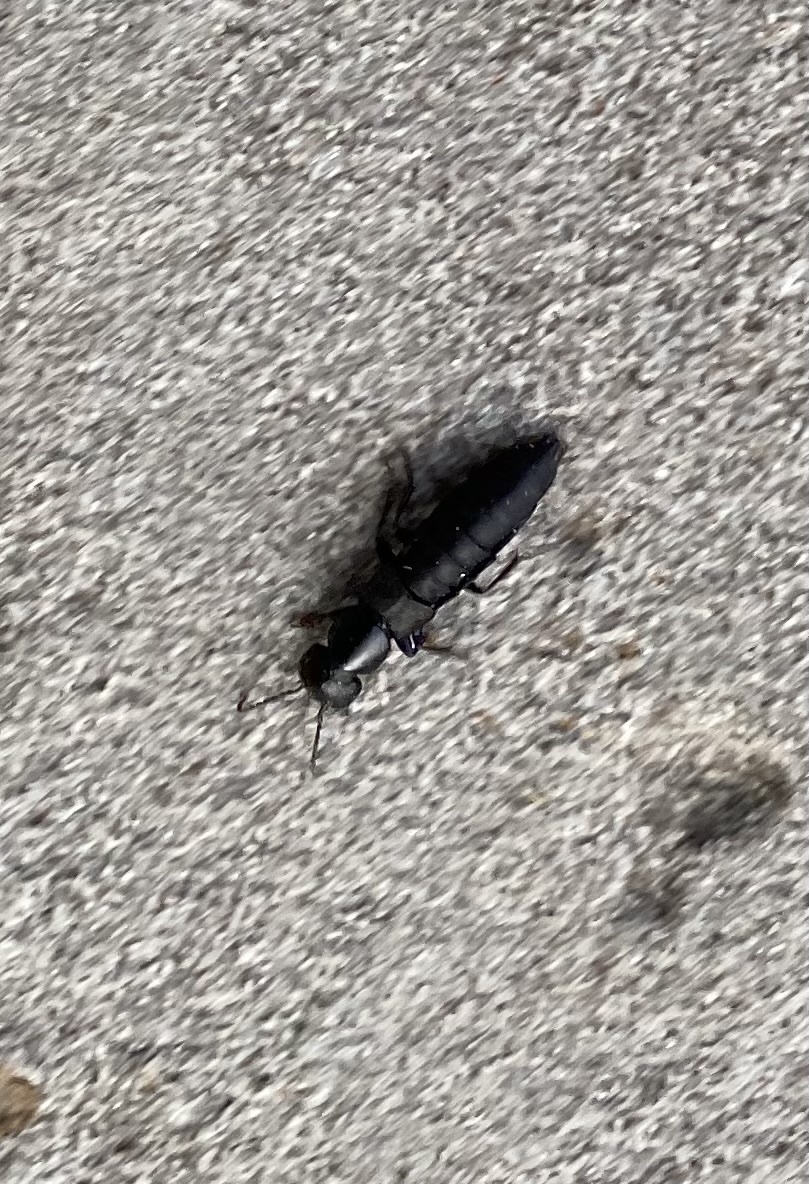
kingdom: Animalia
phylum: Arthropoda
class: Insecta
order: Coleoptera
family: Staphylinidae
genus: Ocypus
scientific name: Ocypus nitens
